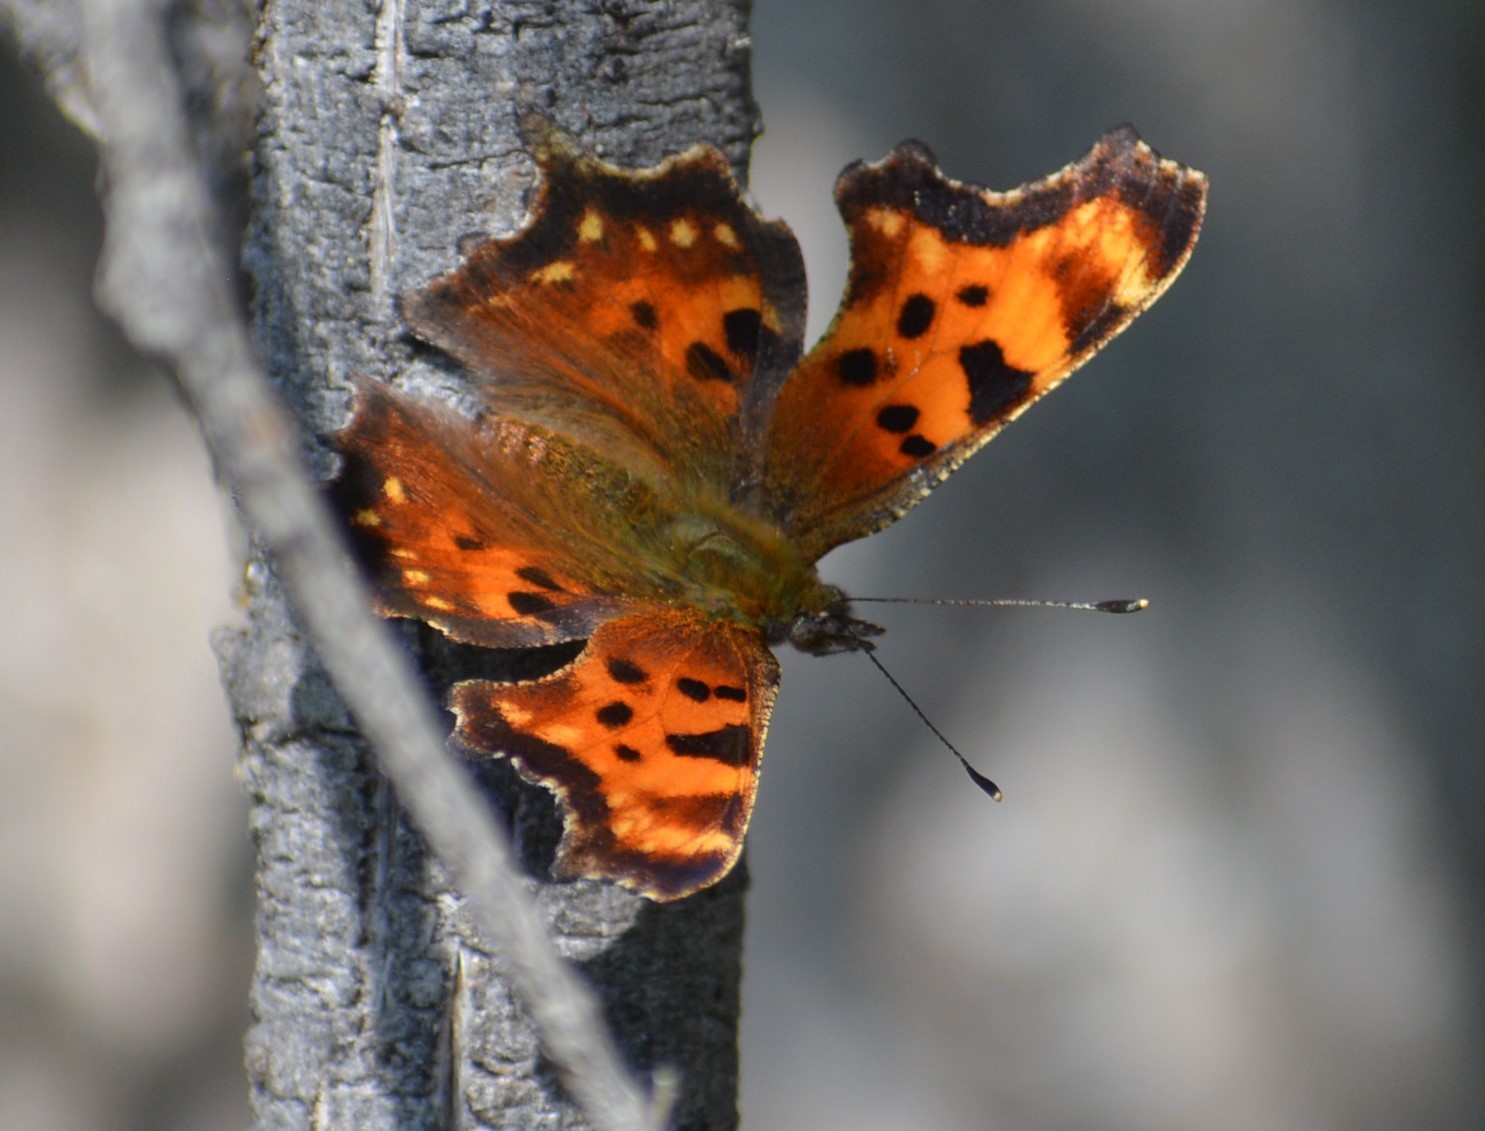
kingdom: Animalia
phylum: Arthropoda
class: Insecta
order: Lepidoptera
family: Nymphalidae
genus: Polygonia
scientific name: Polygonia faunus
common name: Green comma
